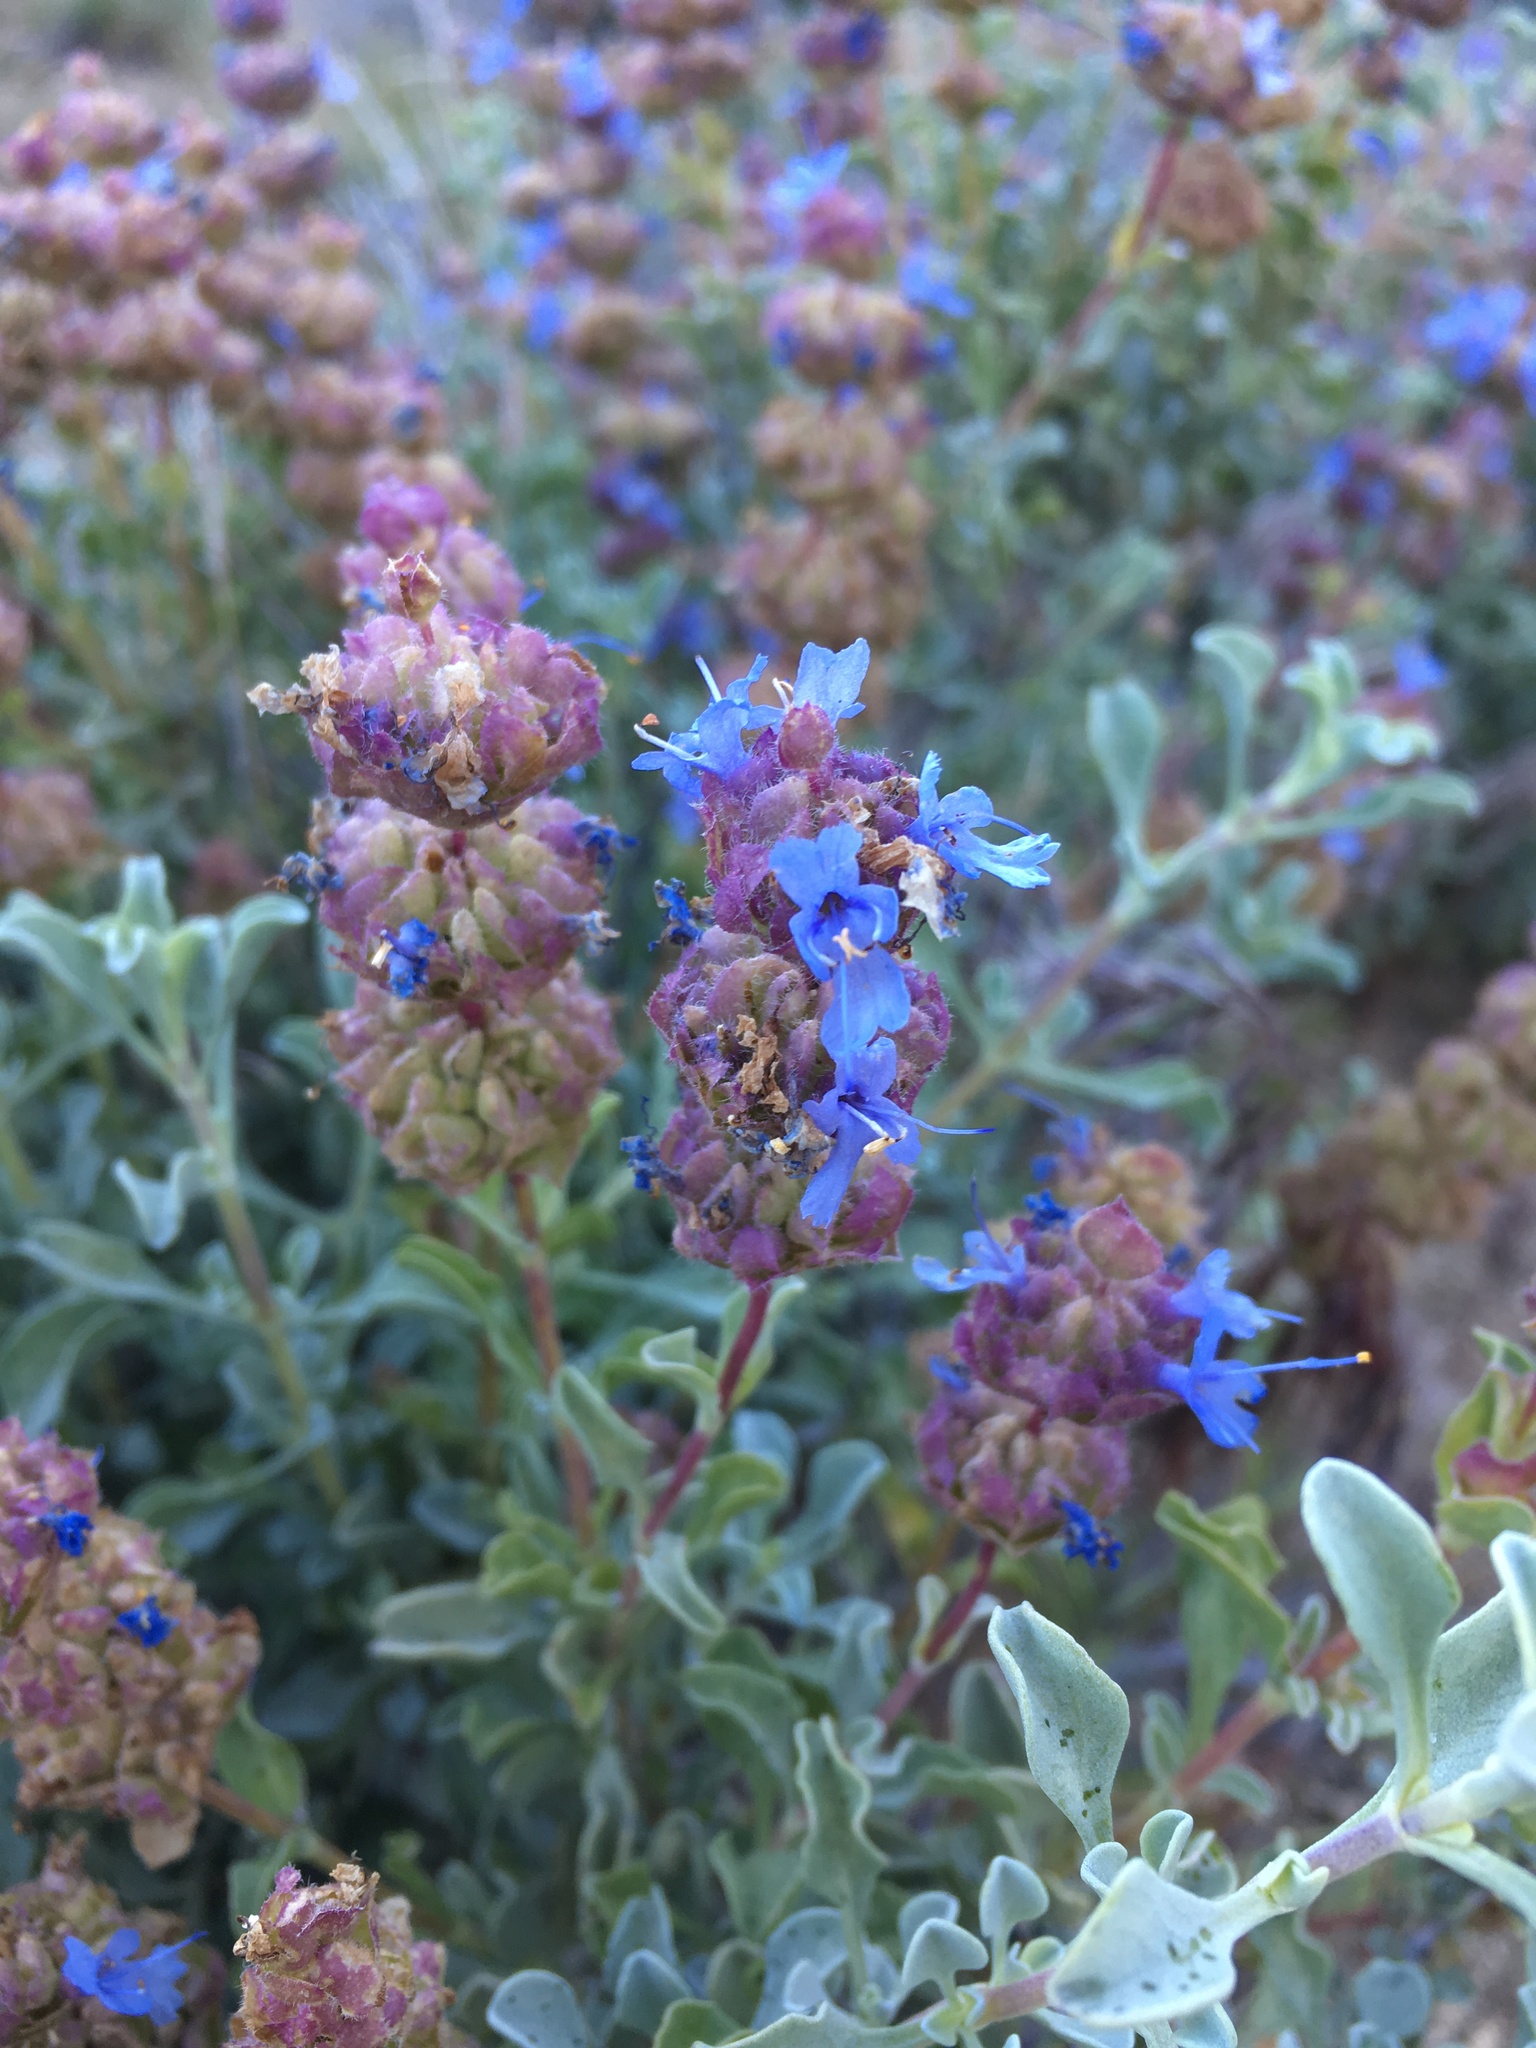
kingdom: Plantae
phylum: Tracheophyta
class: Magnoliopsida
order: Lamiales
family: Lamiaceae
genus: Salvia
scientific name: Salvia dorrii
